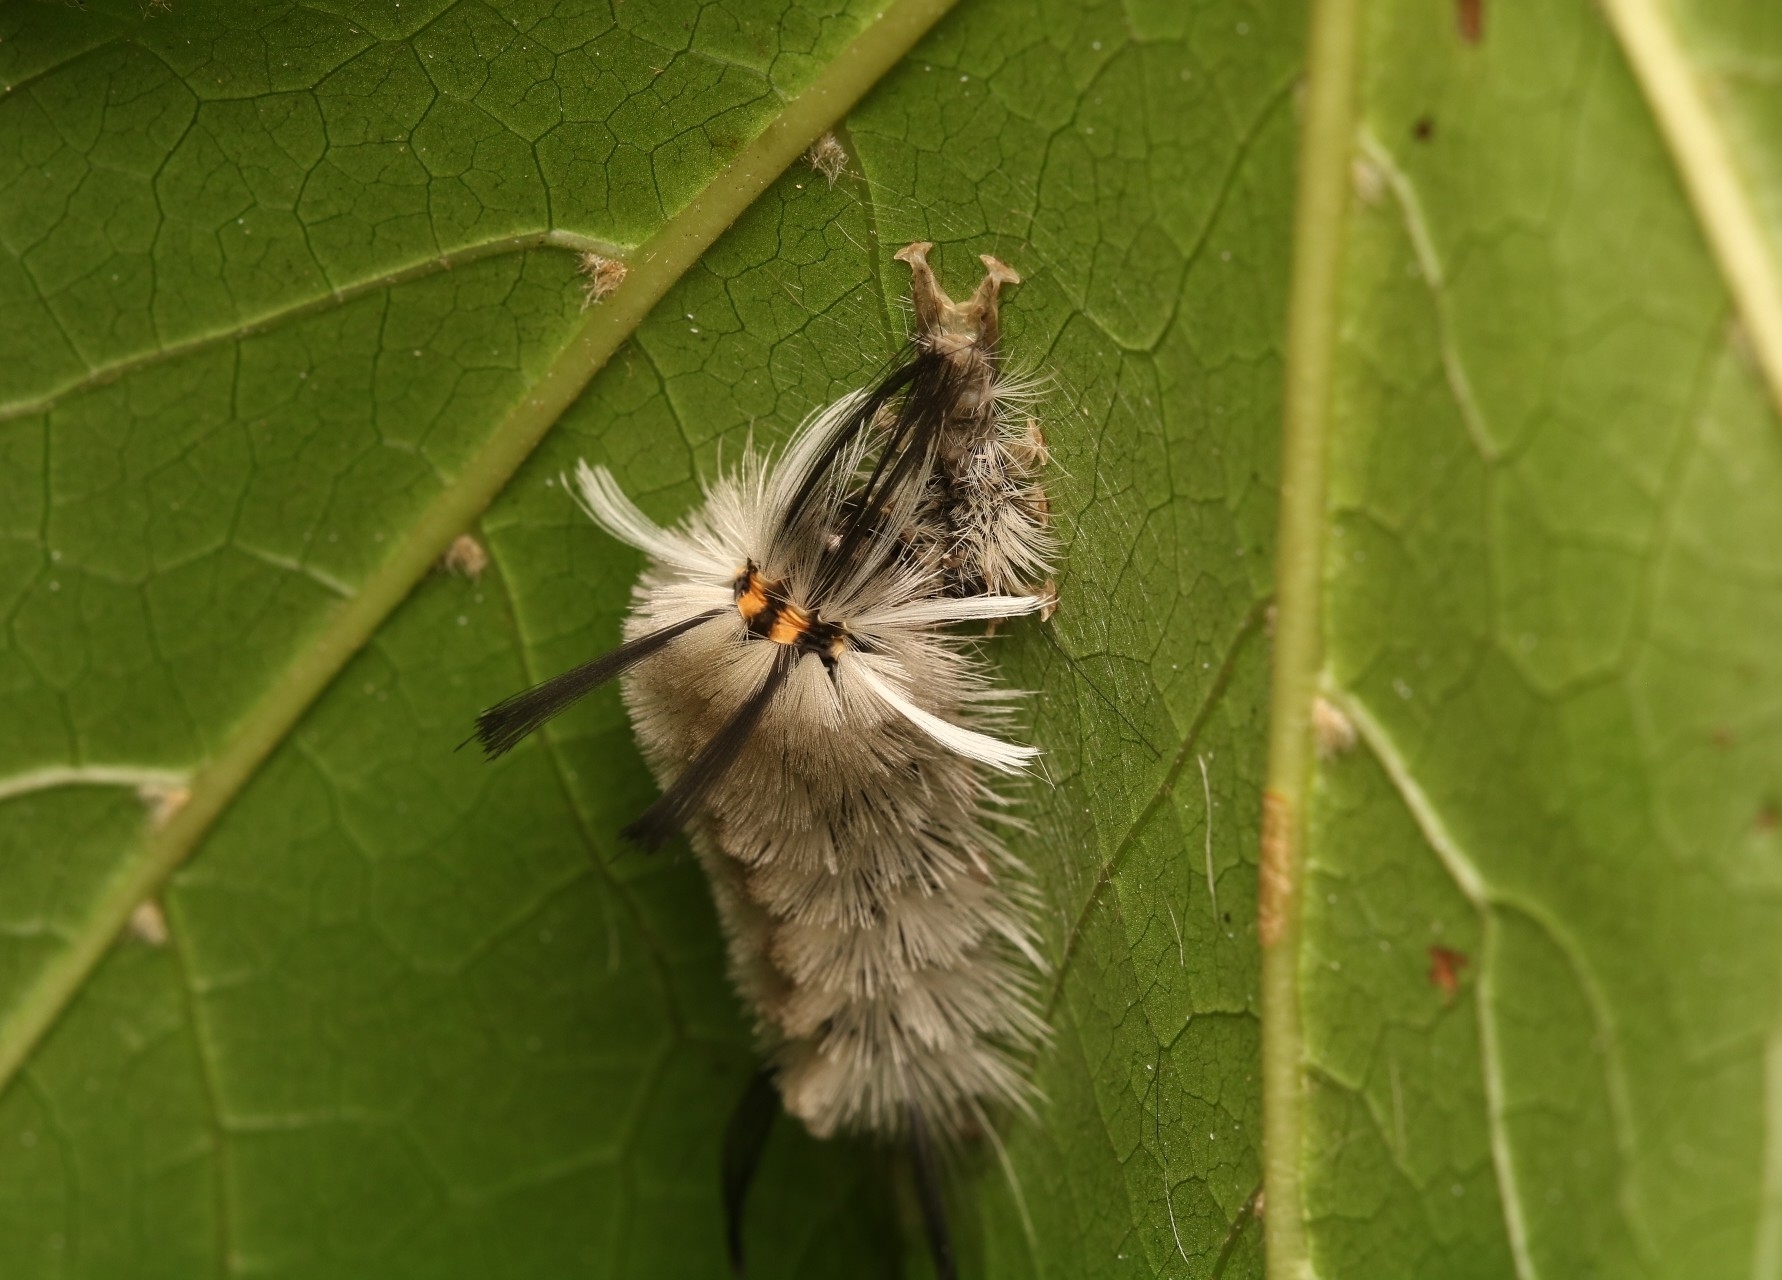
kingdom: Animalia
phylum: Arthropoda
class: Insecta
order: Lepidoptera
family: Erebidae
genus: Halysidota
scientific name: Halysidota tessellaris
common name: Banded tussock moth
